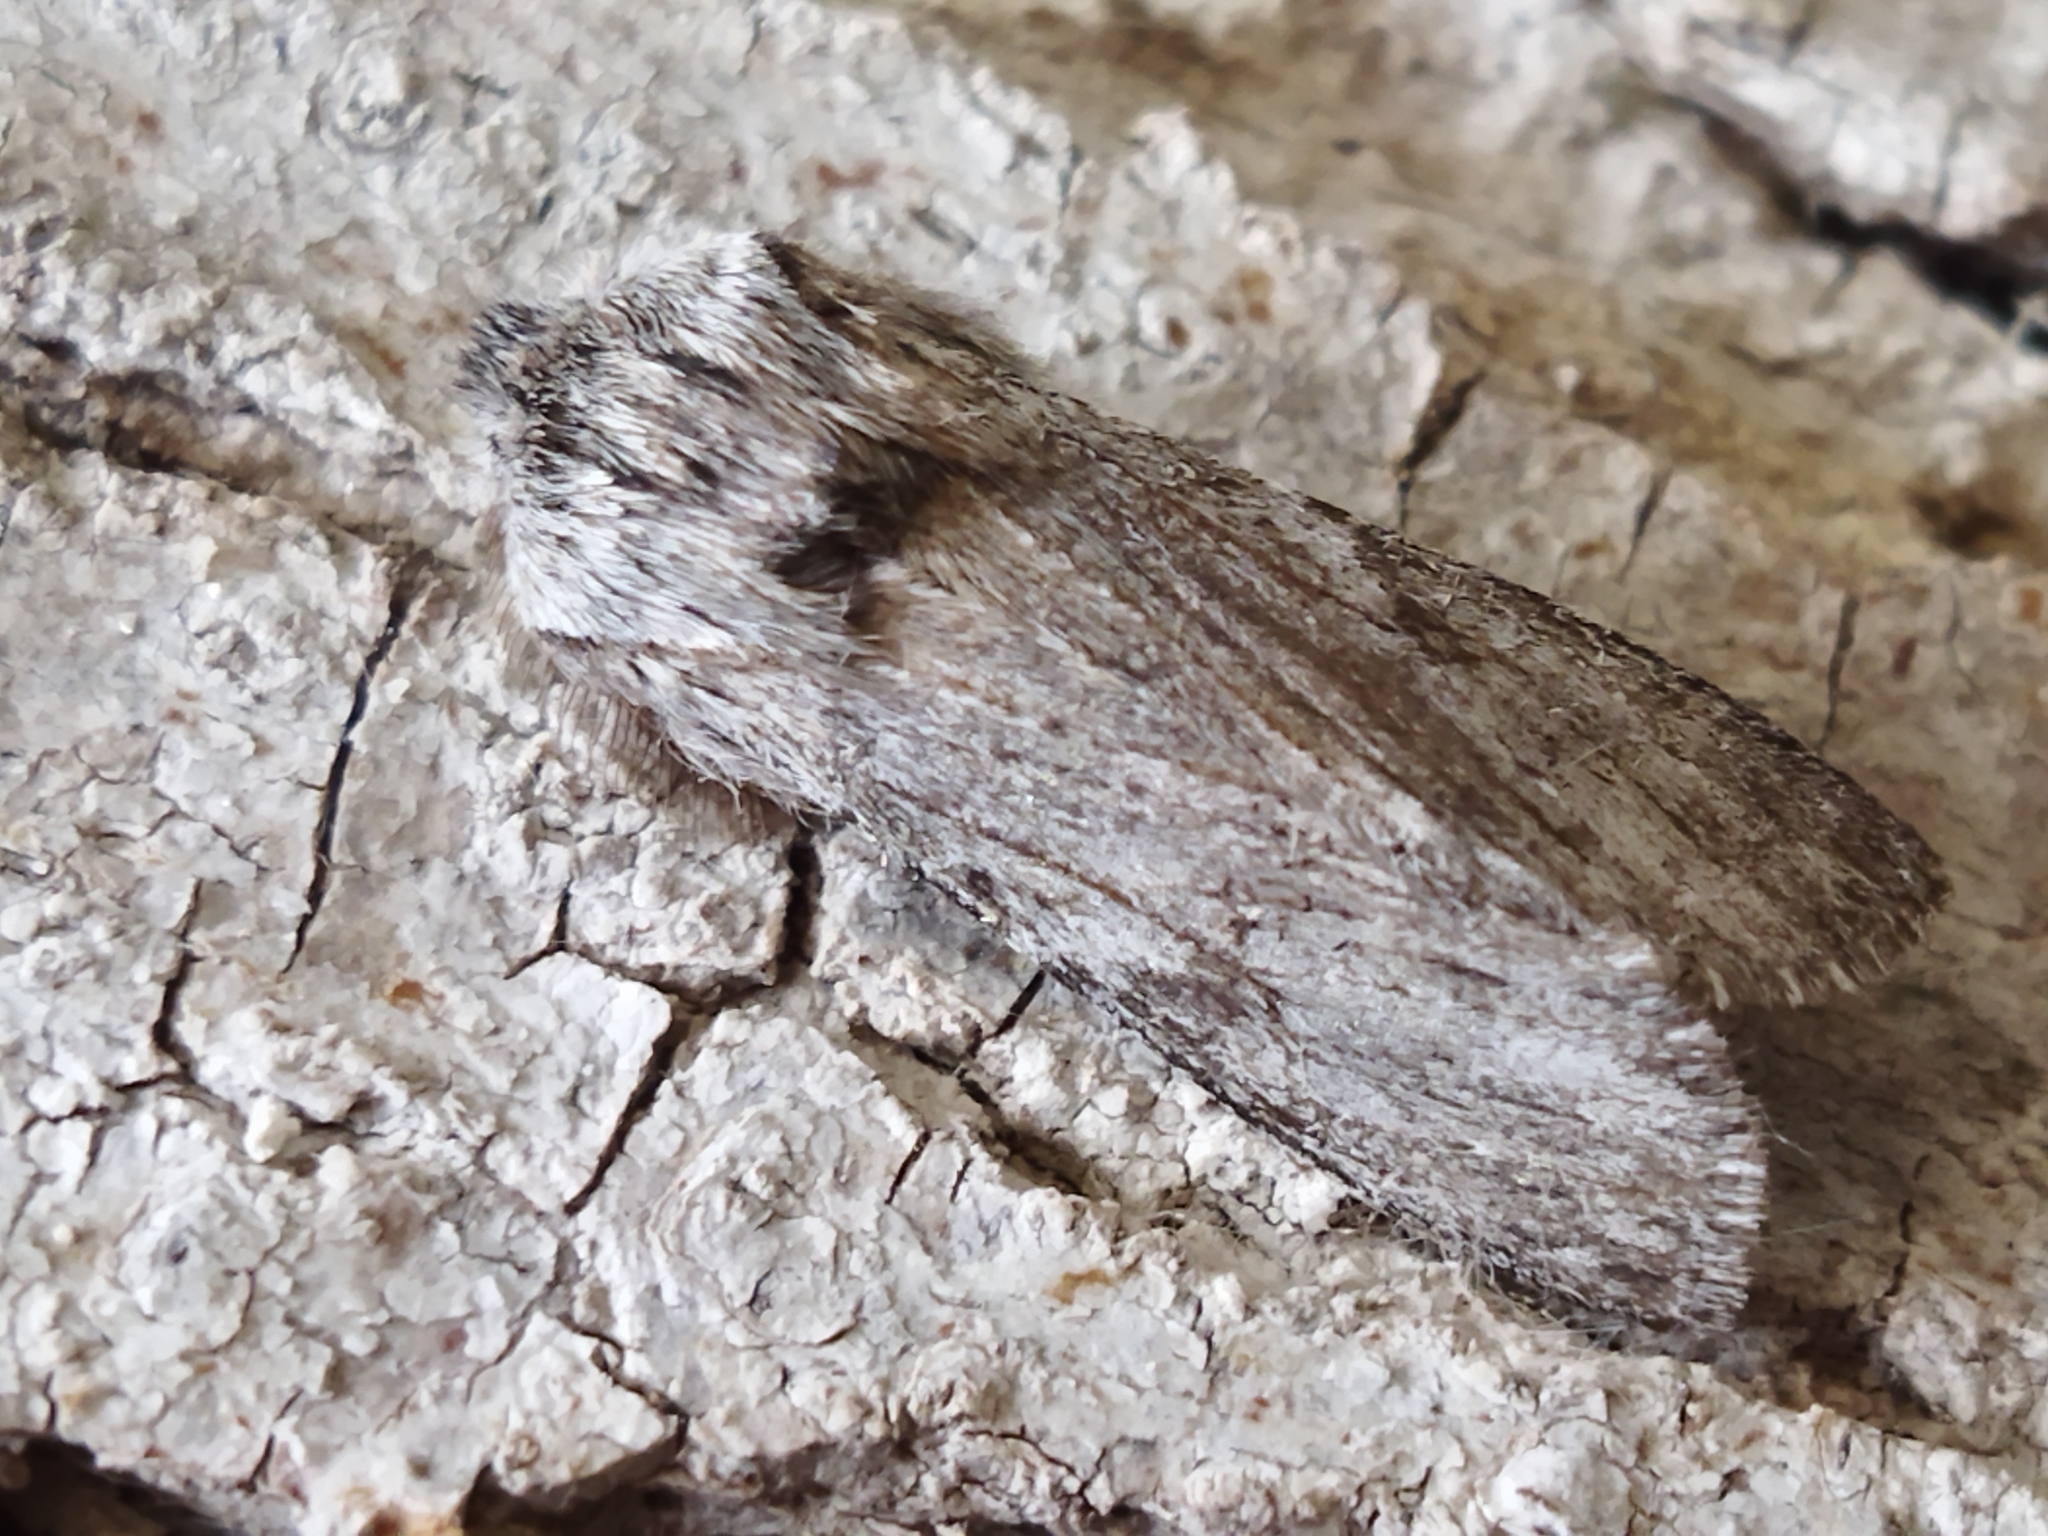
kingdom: Animalia
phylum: Arthropoda
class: Insecta
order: Lepidoptera
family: Notodontidae
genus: Dicranura
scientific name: Dicranura ulmi
